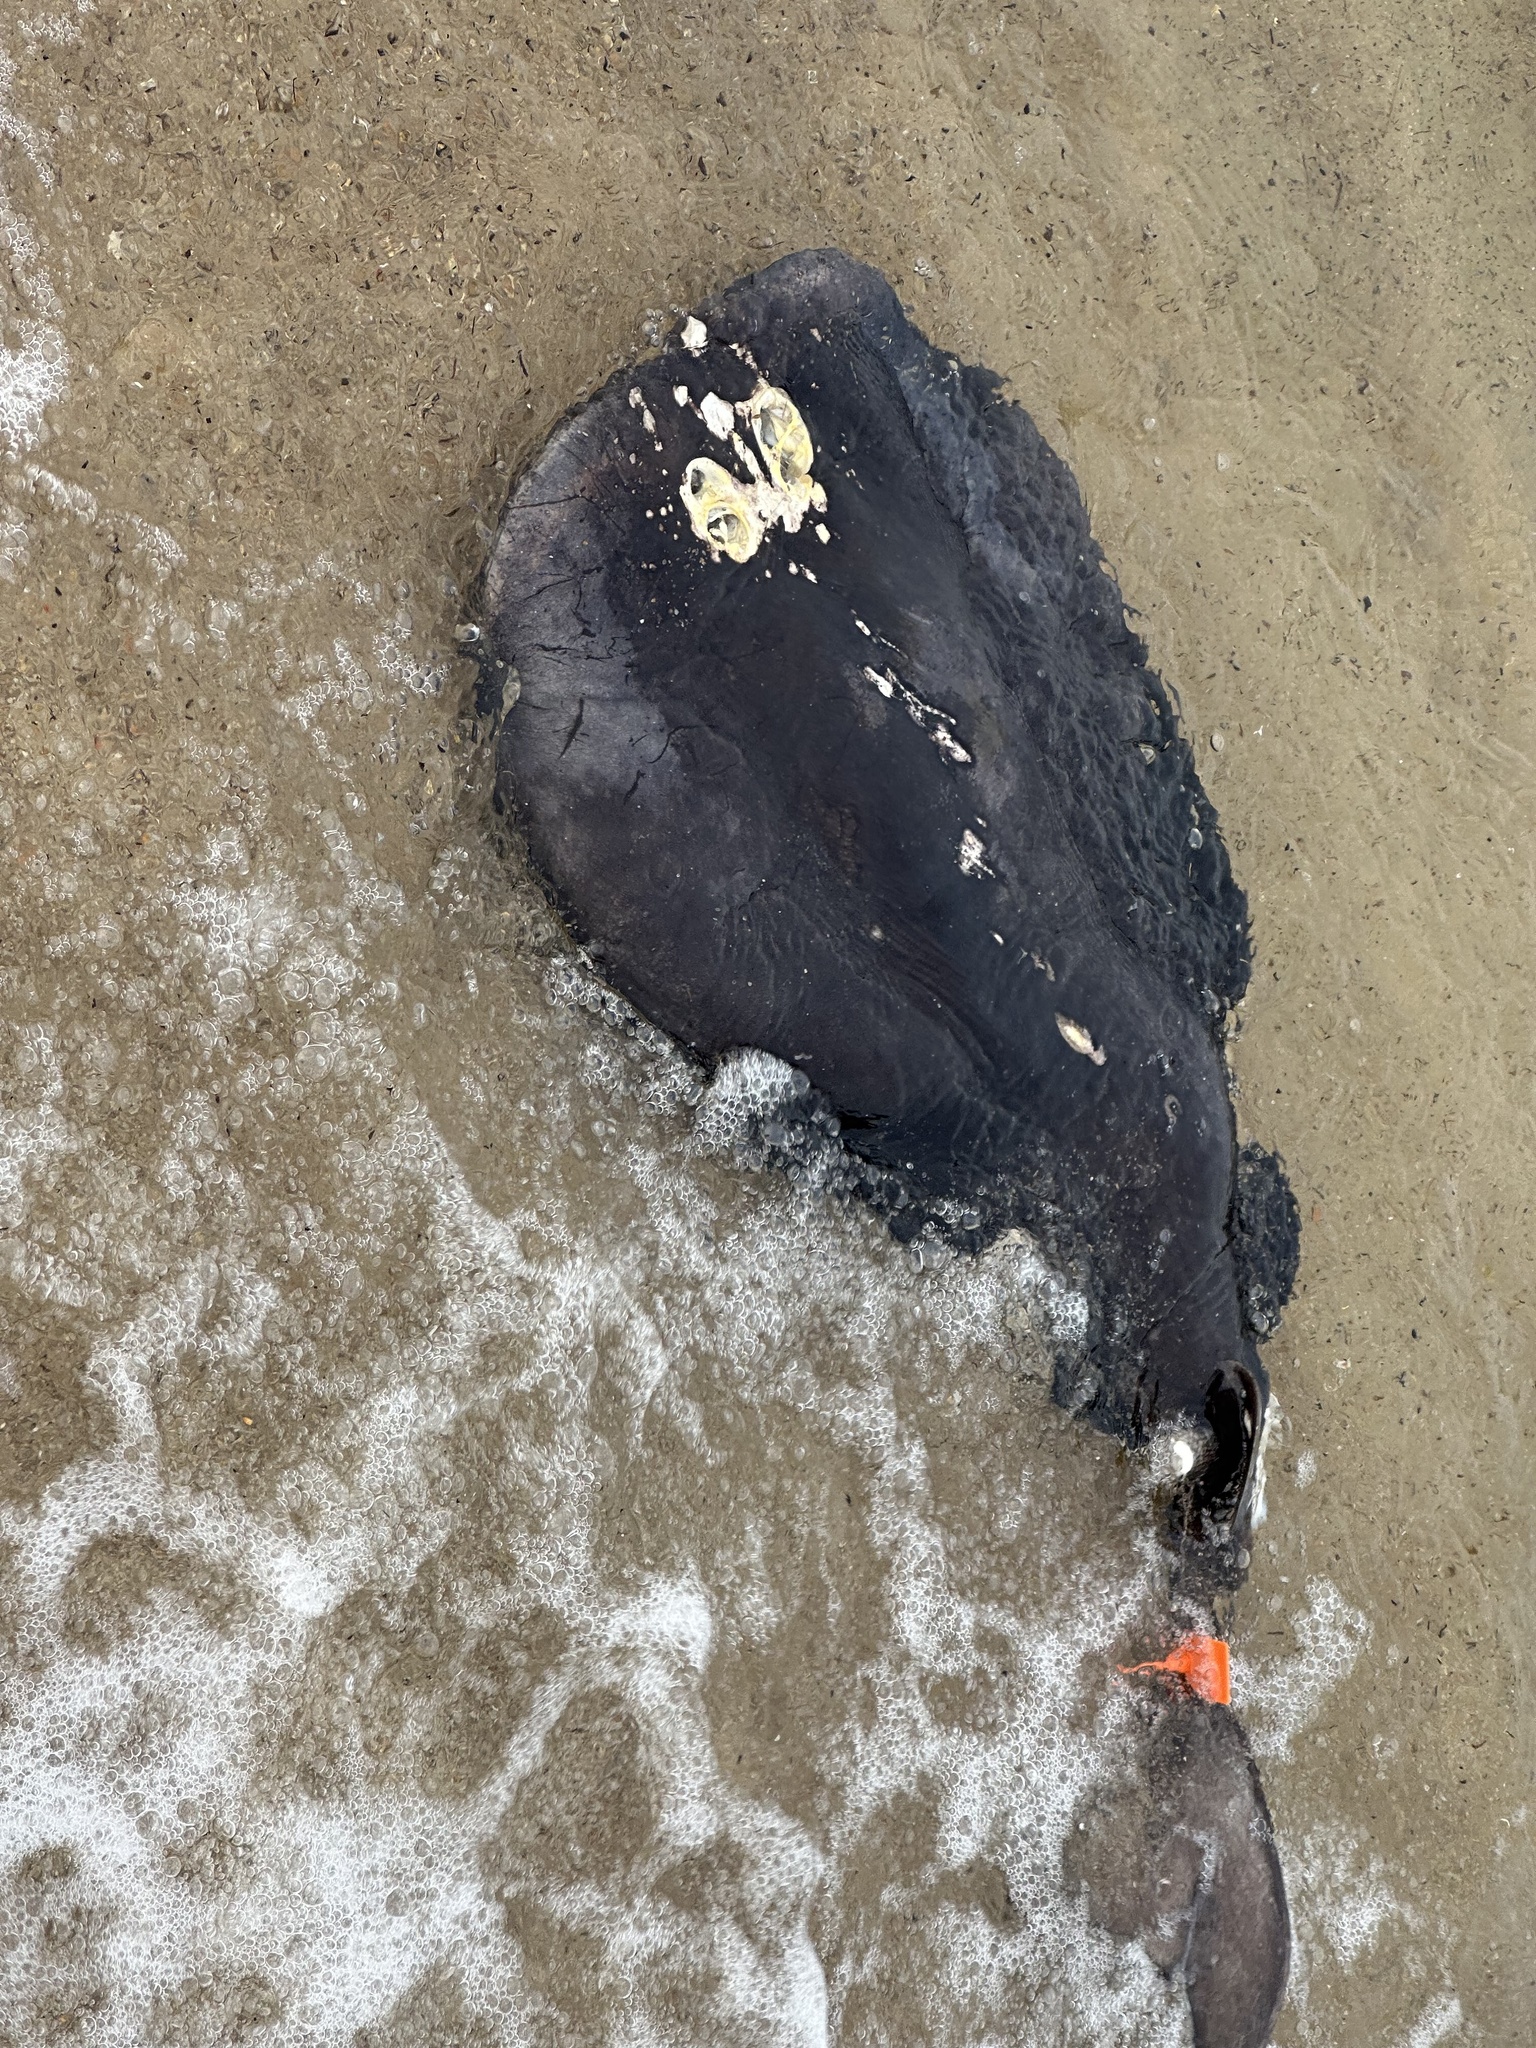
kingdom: Animalia
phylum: Chordata
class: Elasmobranchii
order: Torpediniformes
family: Torpedinidae
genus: Tetronarce
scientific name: Tetronarce nobiliana
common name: Electric ray
